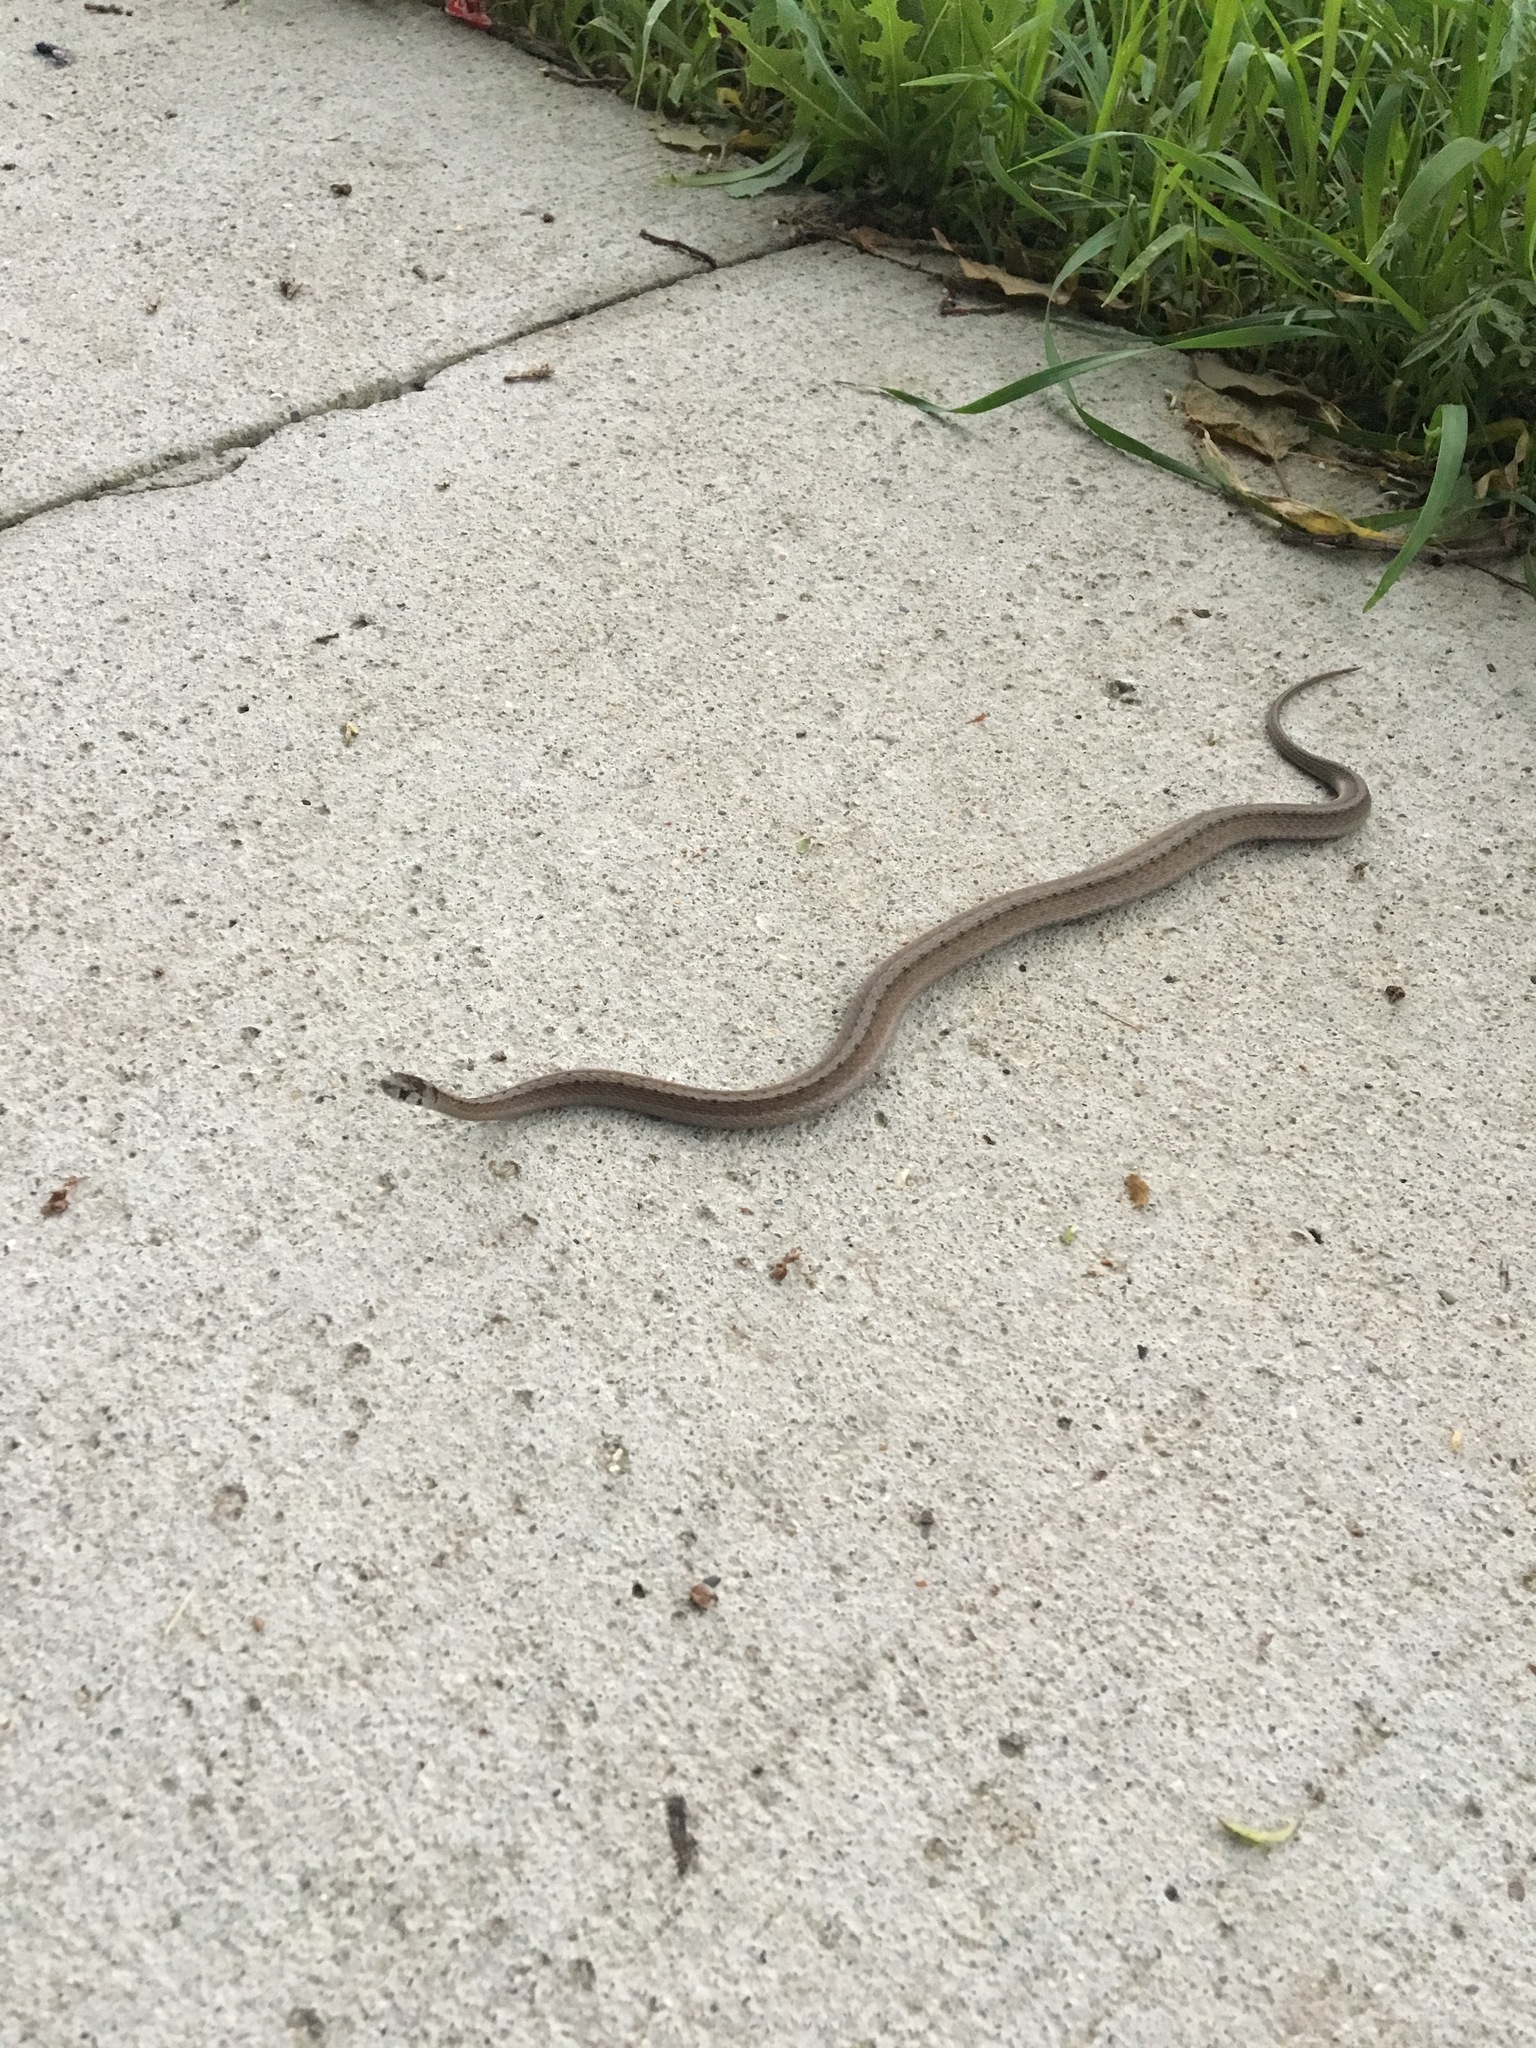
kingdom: Animalia
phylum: Chordata
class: Squamata
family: Colubridae
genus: Storeria
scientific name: Storeria dekayi
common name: (dekay’s) brown snake
